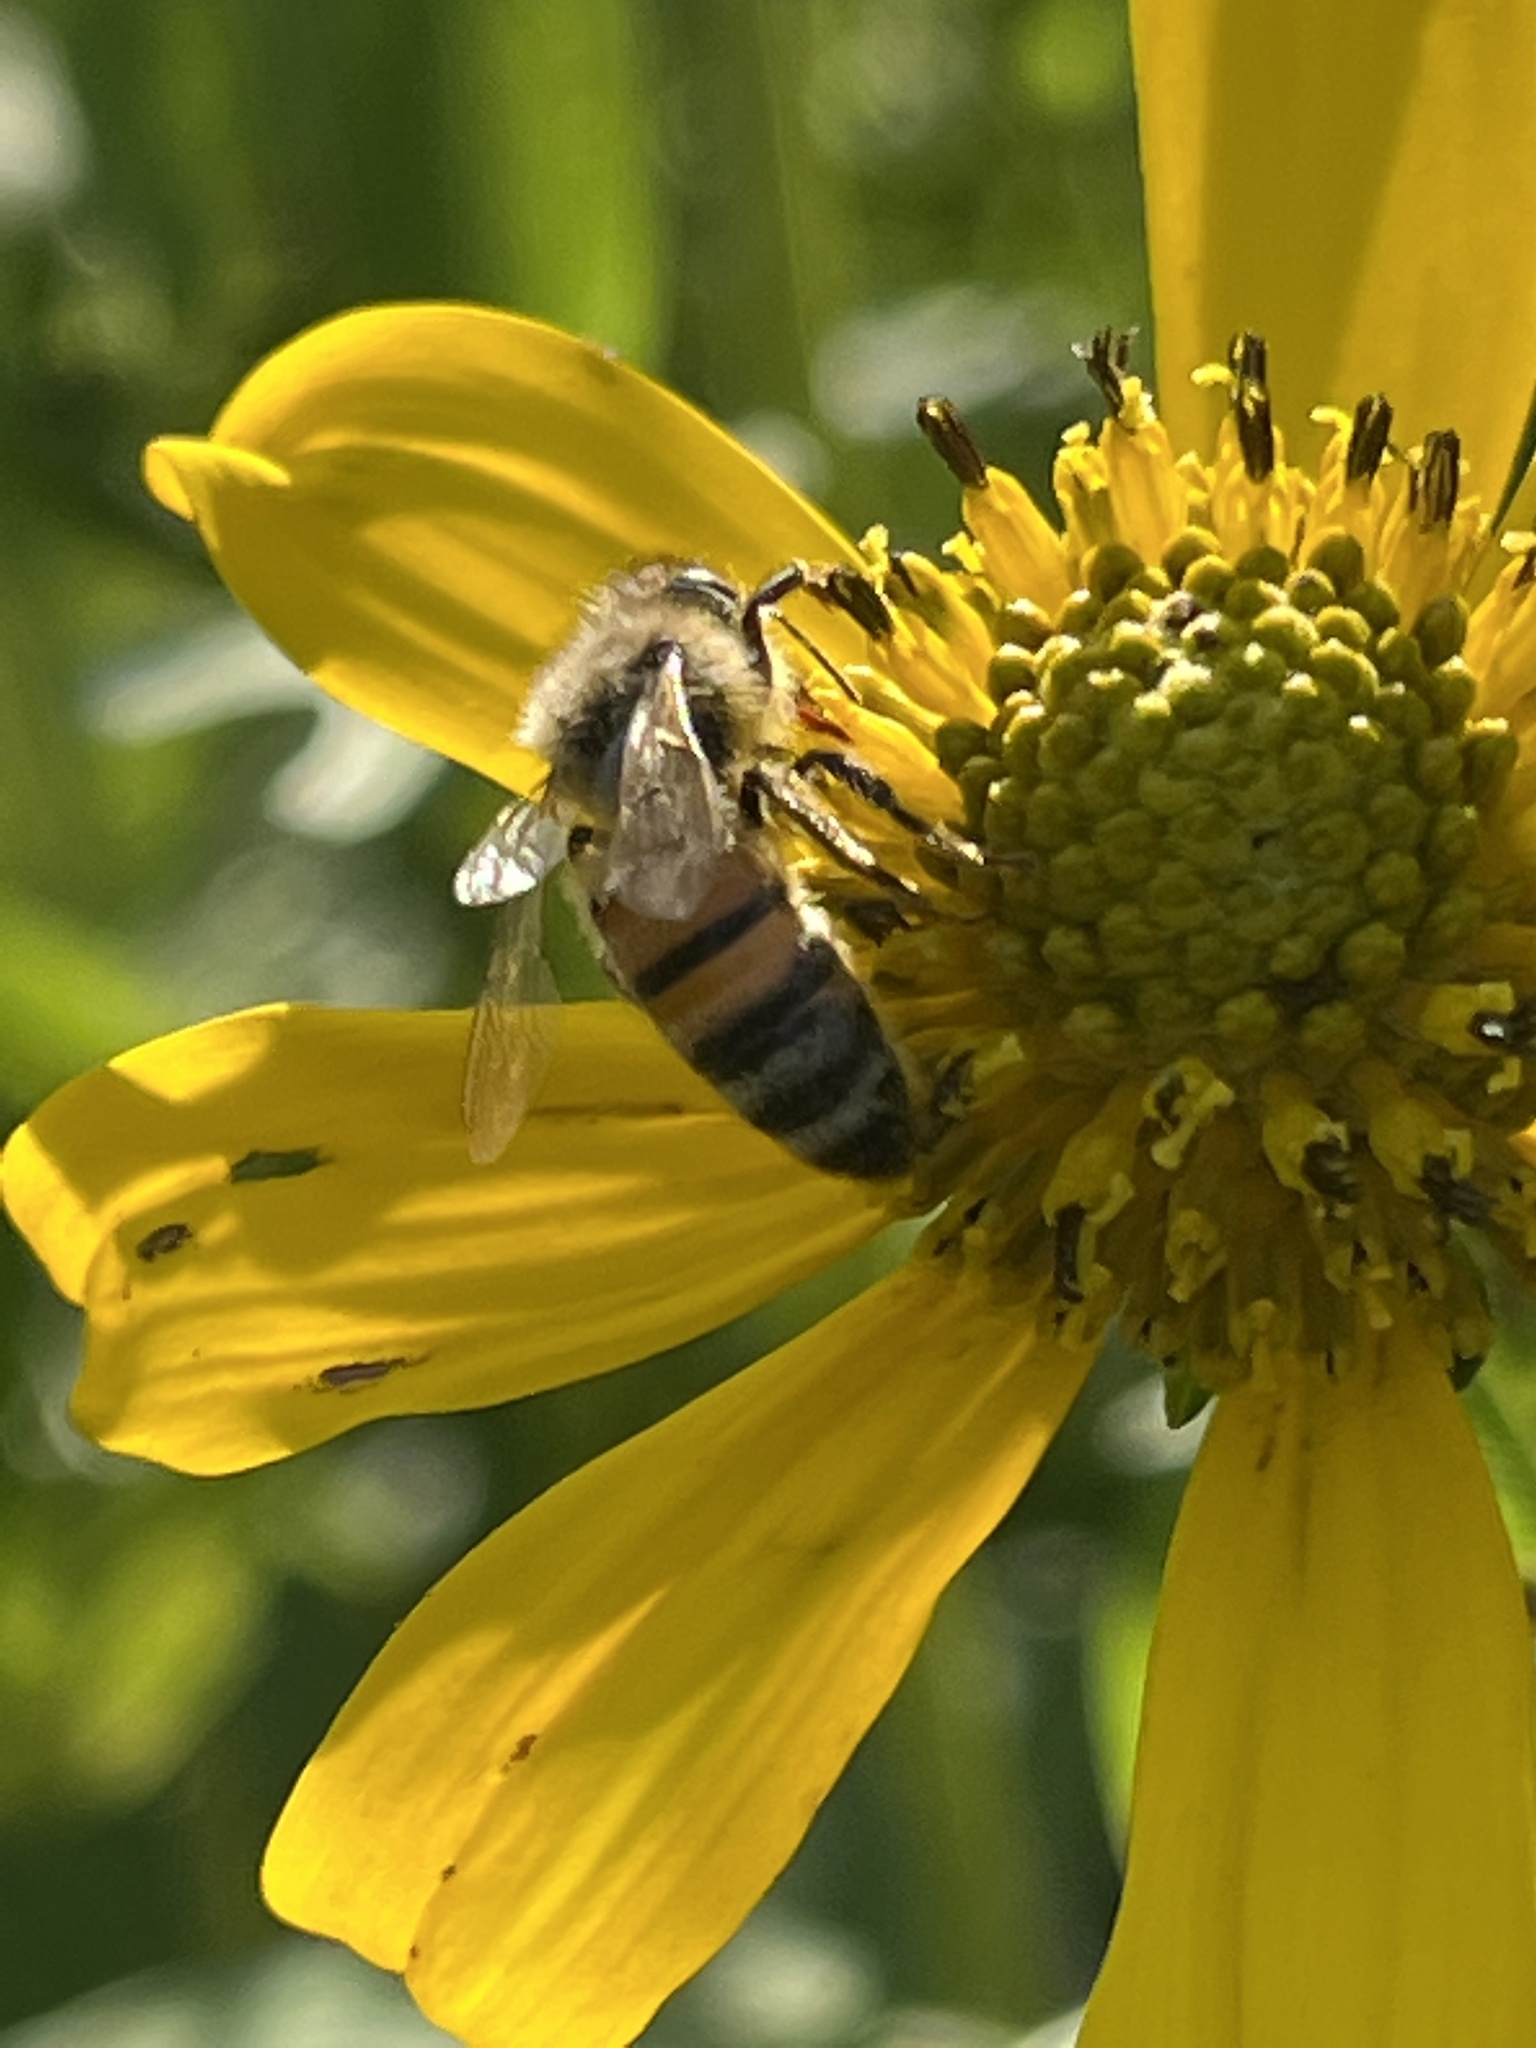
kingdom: Animalia
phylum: Arthropoda
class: Insecta
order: Hymenoptera
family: Apidae
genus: Apis
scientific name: Apis mellifera
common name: Honey bee
